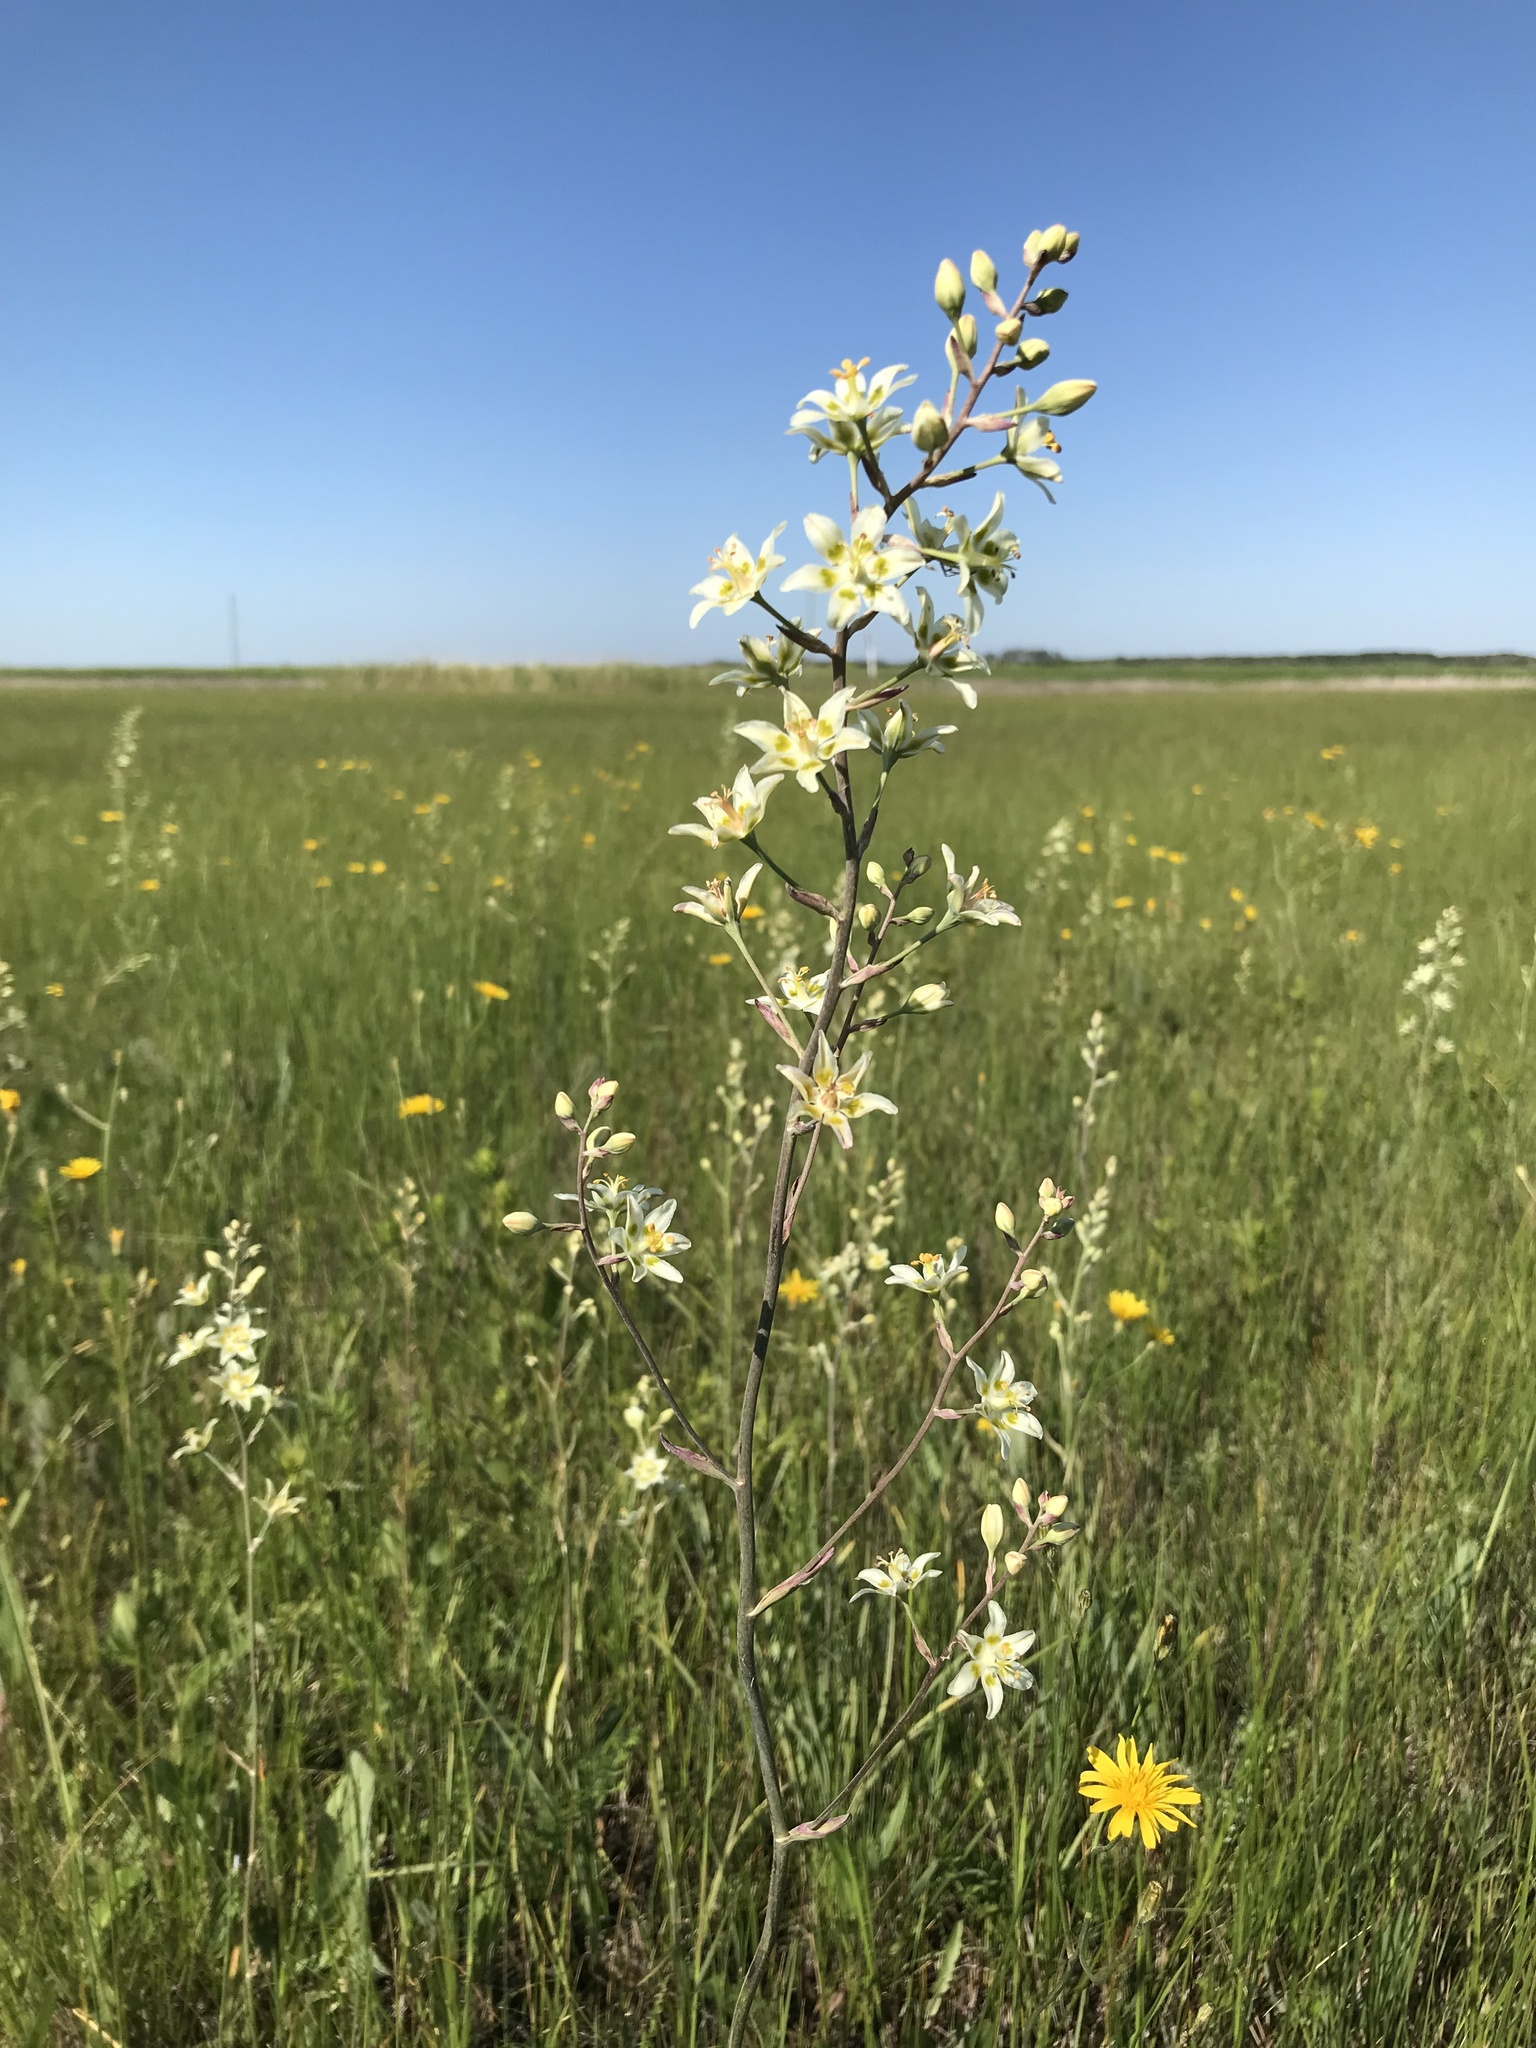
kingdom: Plantae
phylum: Tracheophyta
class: Liliopsida
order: Liliales
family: Melanthiaceae
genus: Anticlea
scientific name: Anticlea elegans
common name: Mountain death camas
